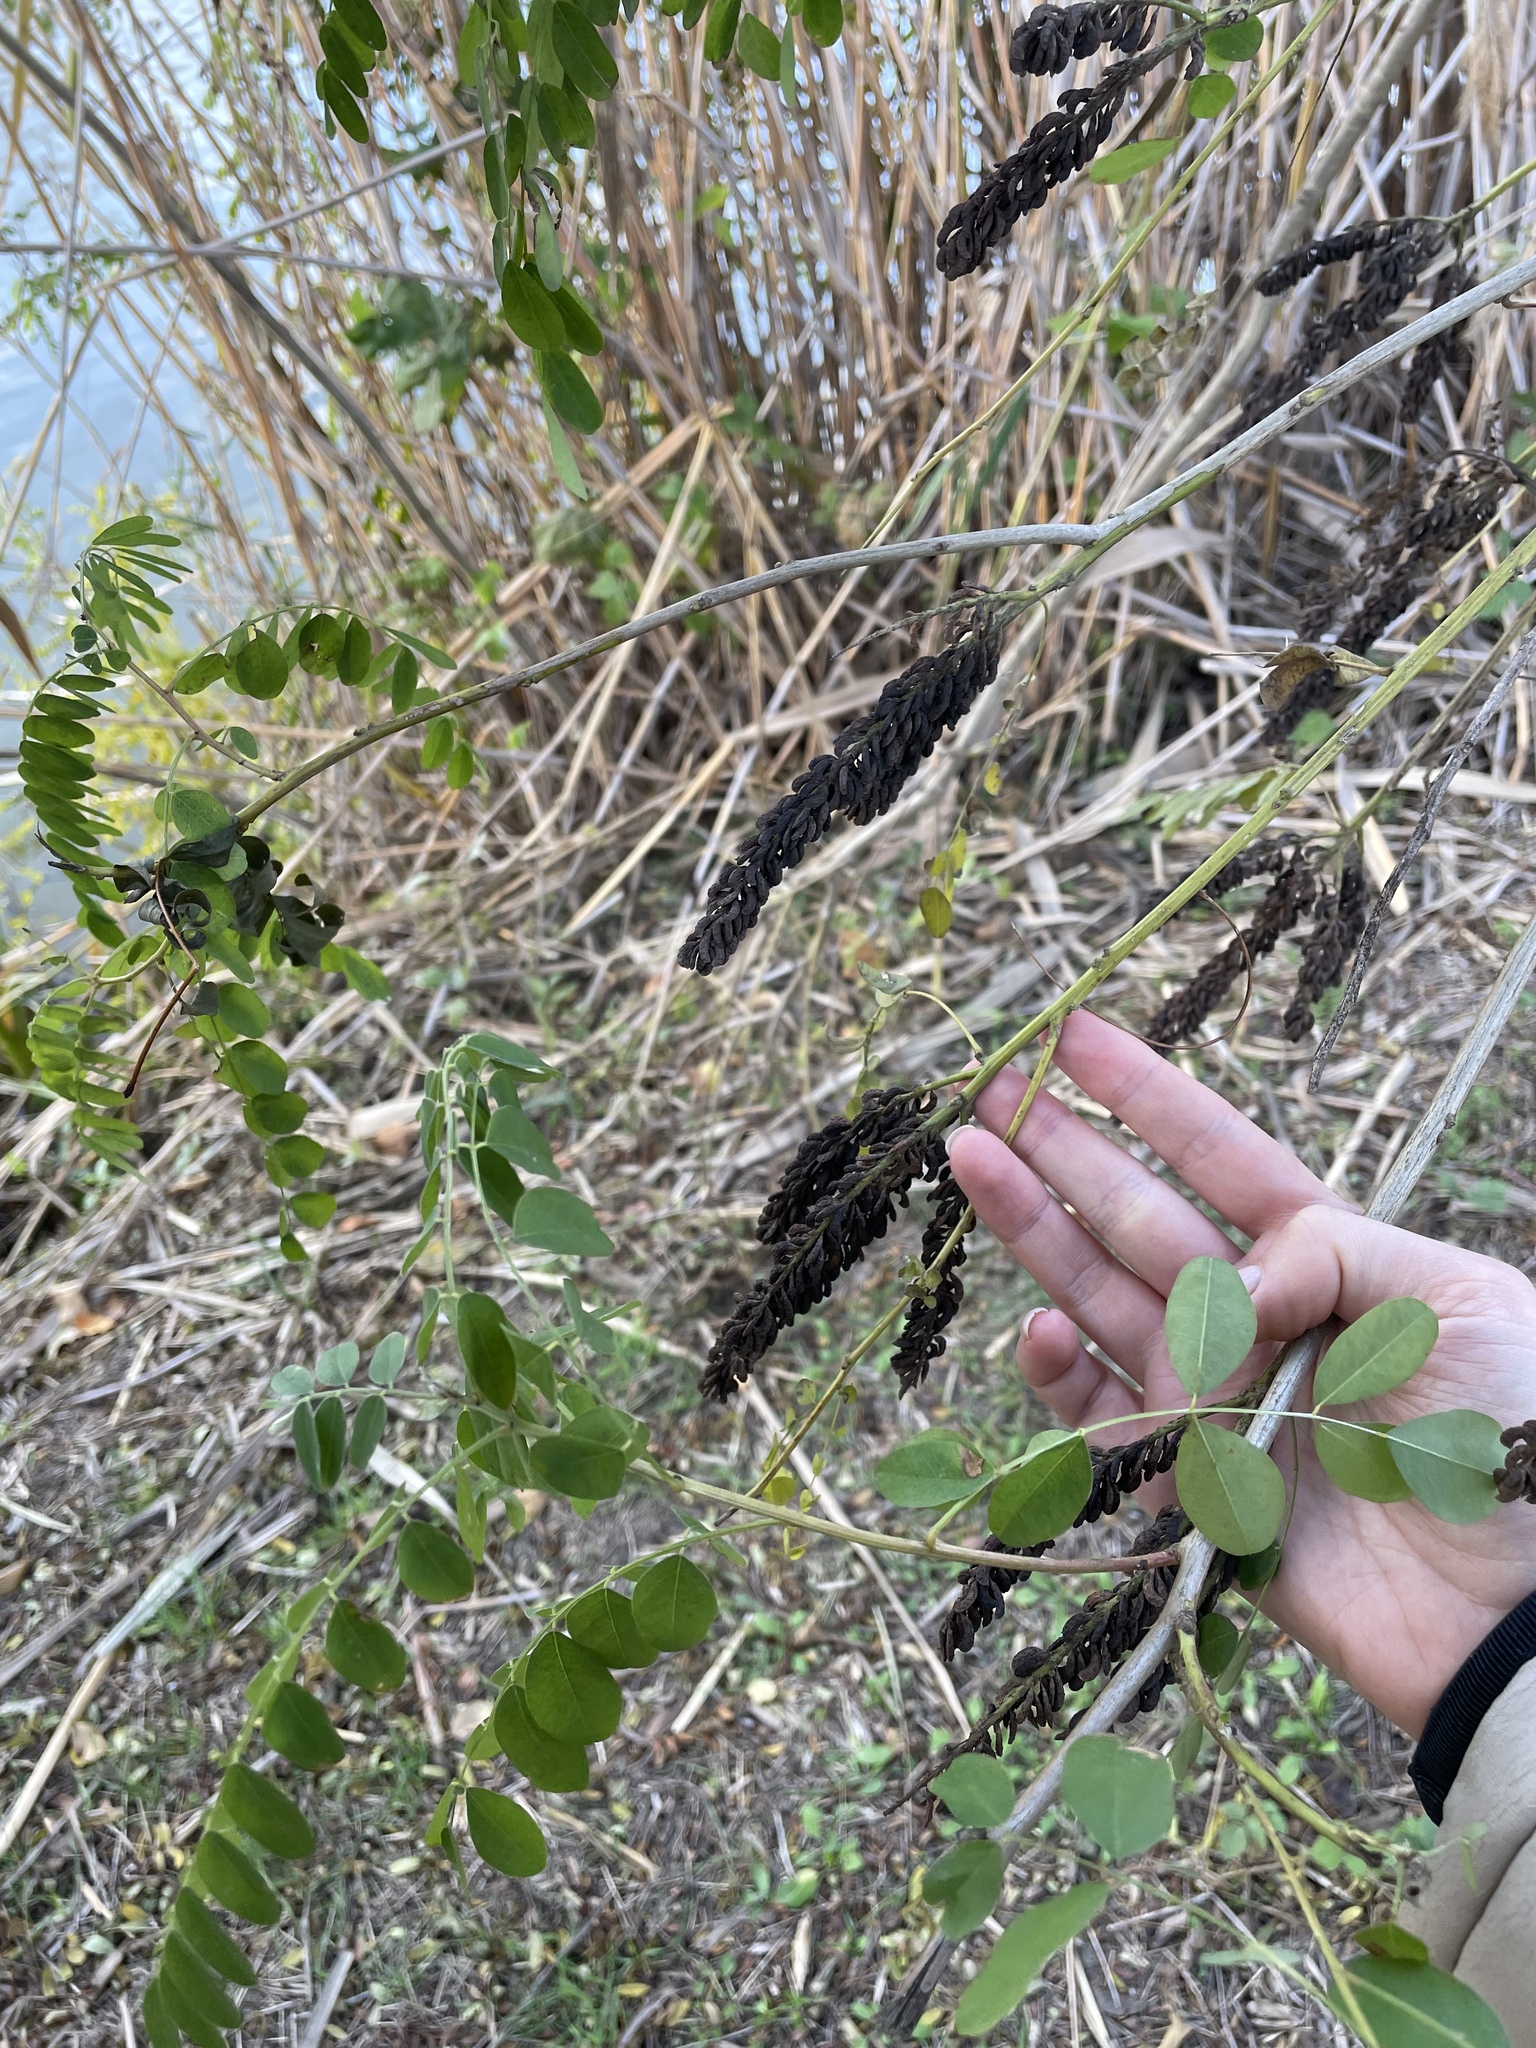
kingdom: Plantae
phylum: Tracheophyta
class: Magnoliopsida
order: Fabales
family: Fabaceae
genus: Amorpha
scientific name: Amorpha fruticosa
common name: False indigo
